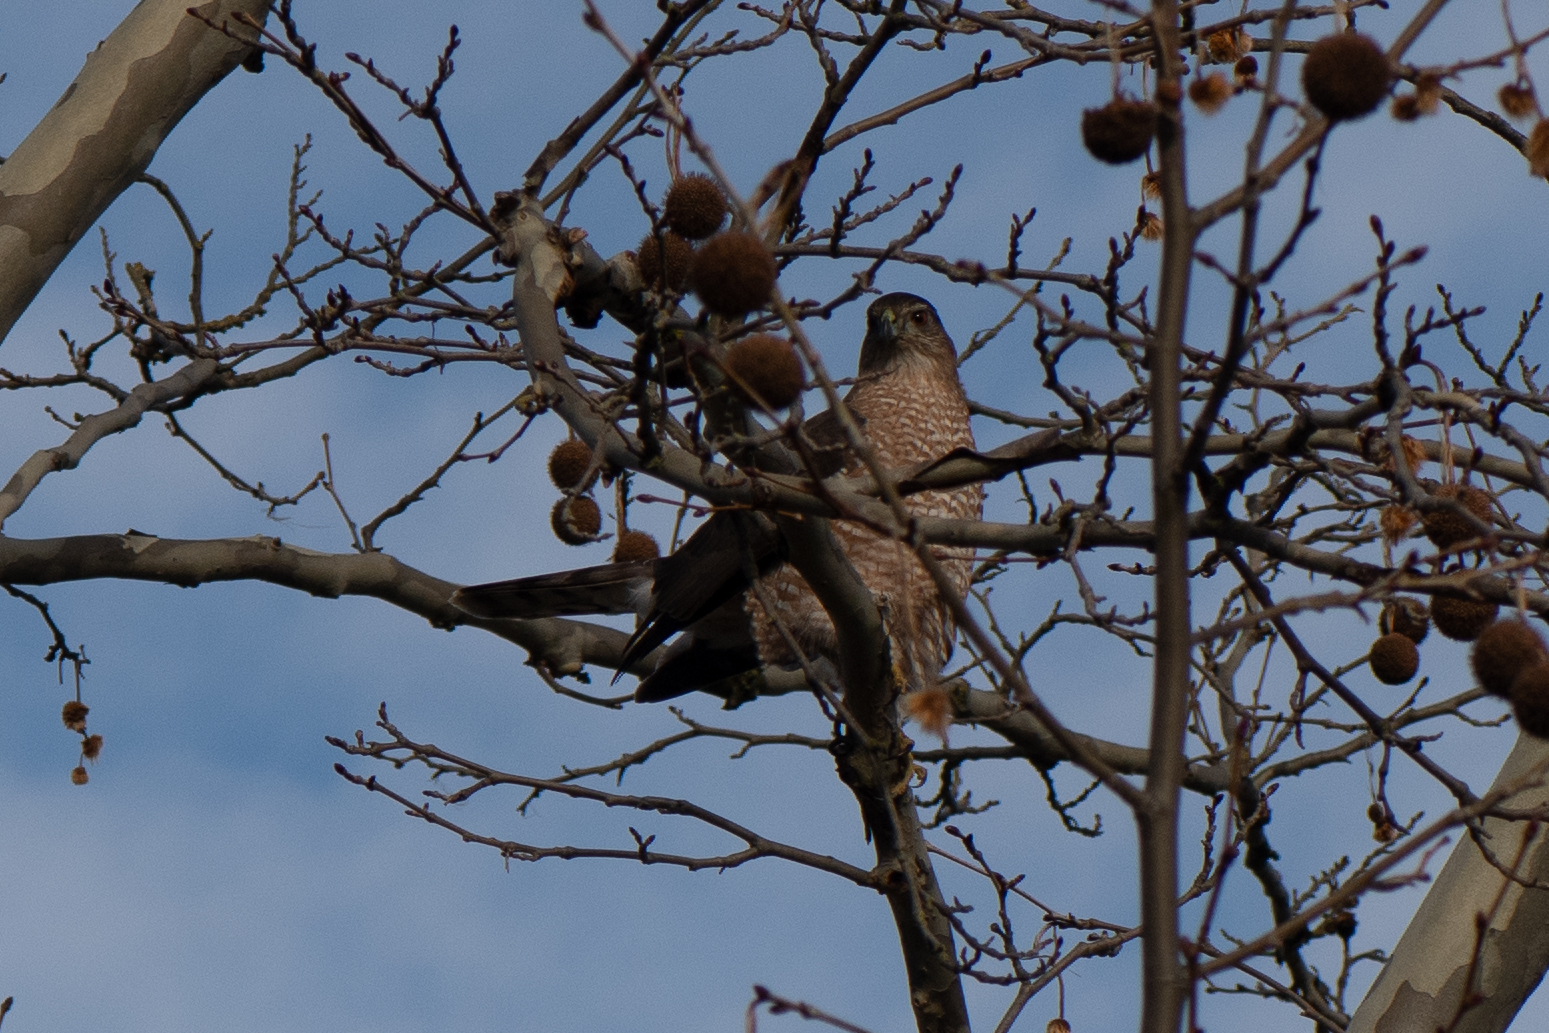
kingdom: Animalia
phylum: Chordata
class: Aves
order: Accipitriformes
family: Accipitridae
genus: Accipiter
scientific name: Accipiter cooperii
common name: Cooper's hawk
